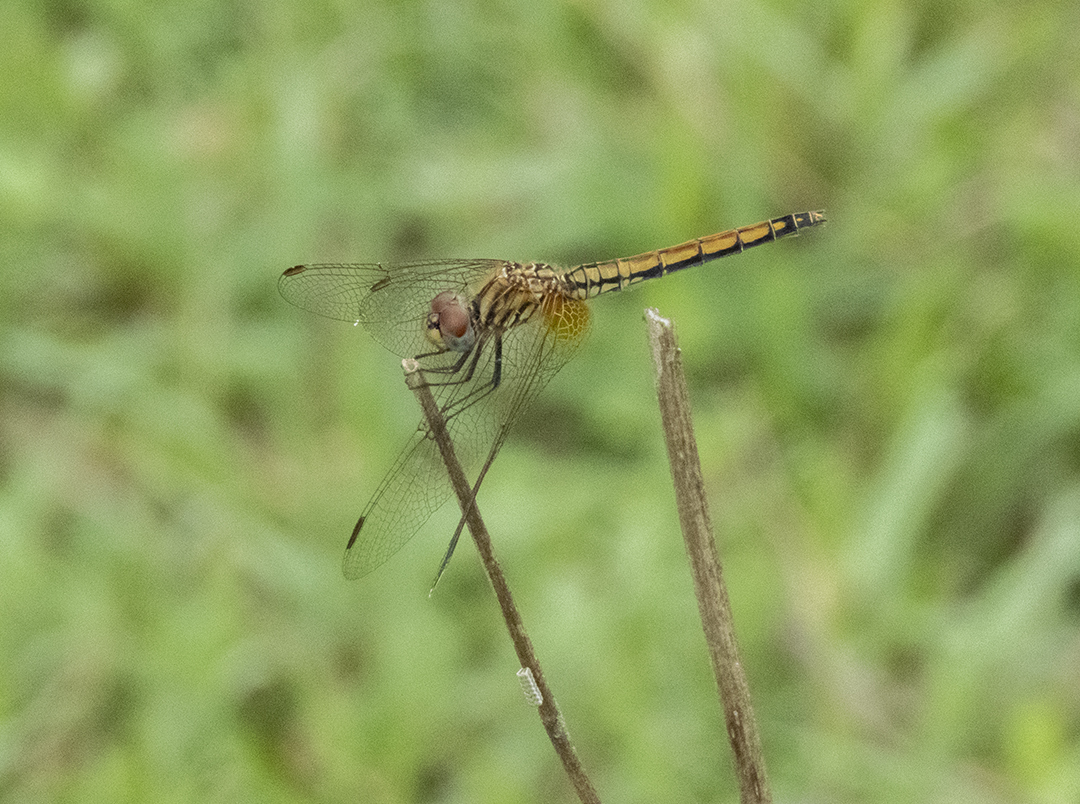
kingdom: Animalia
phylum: Arthropoda
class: Insecta
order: Odonata
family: Libellulidae
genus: Trithemis
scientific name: Trithemis aurora
